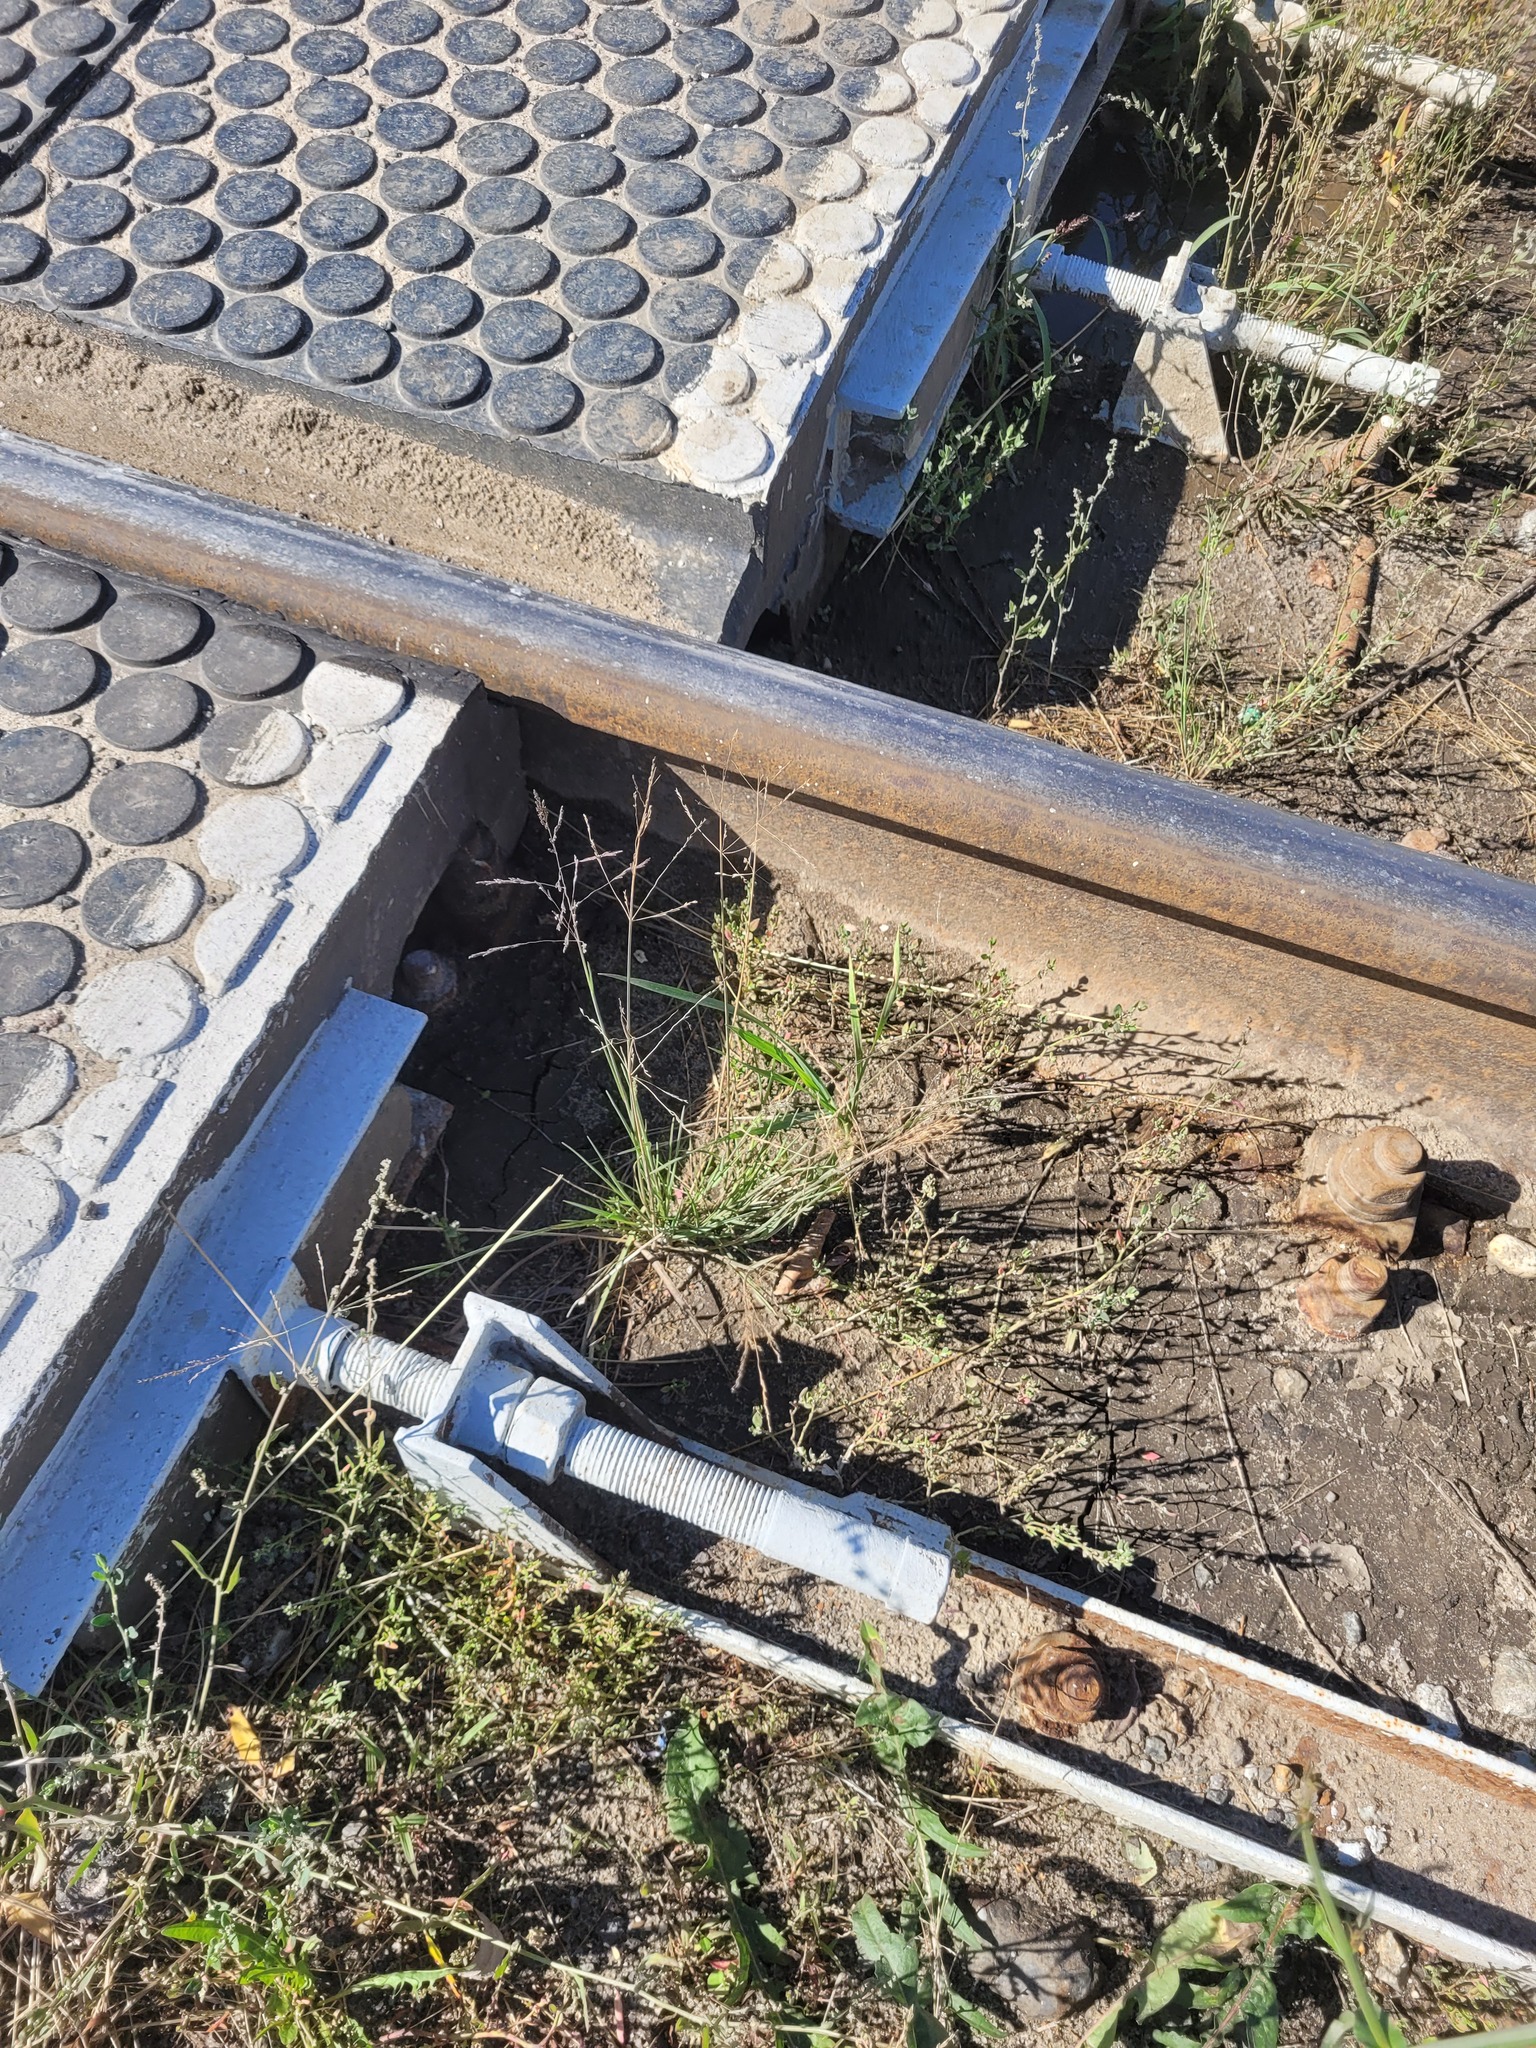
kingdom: Plantae
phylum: Tracheophyta
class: Liliopsida
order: Poales
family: Poaceae
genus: Puccinellia
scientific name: Puccinellia distans
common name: Weeping alkaligrass
